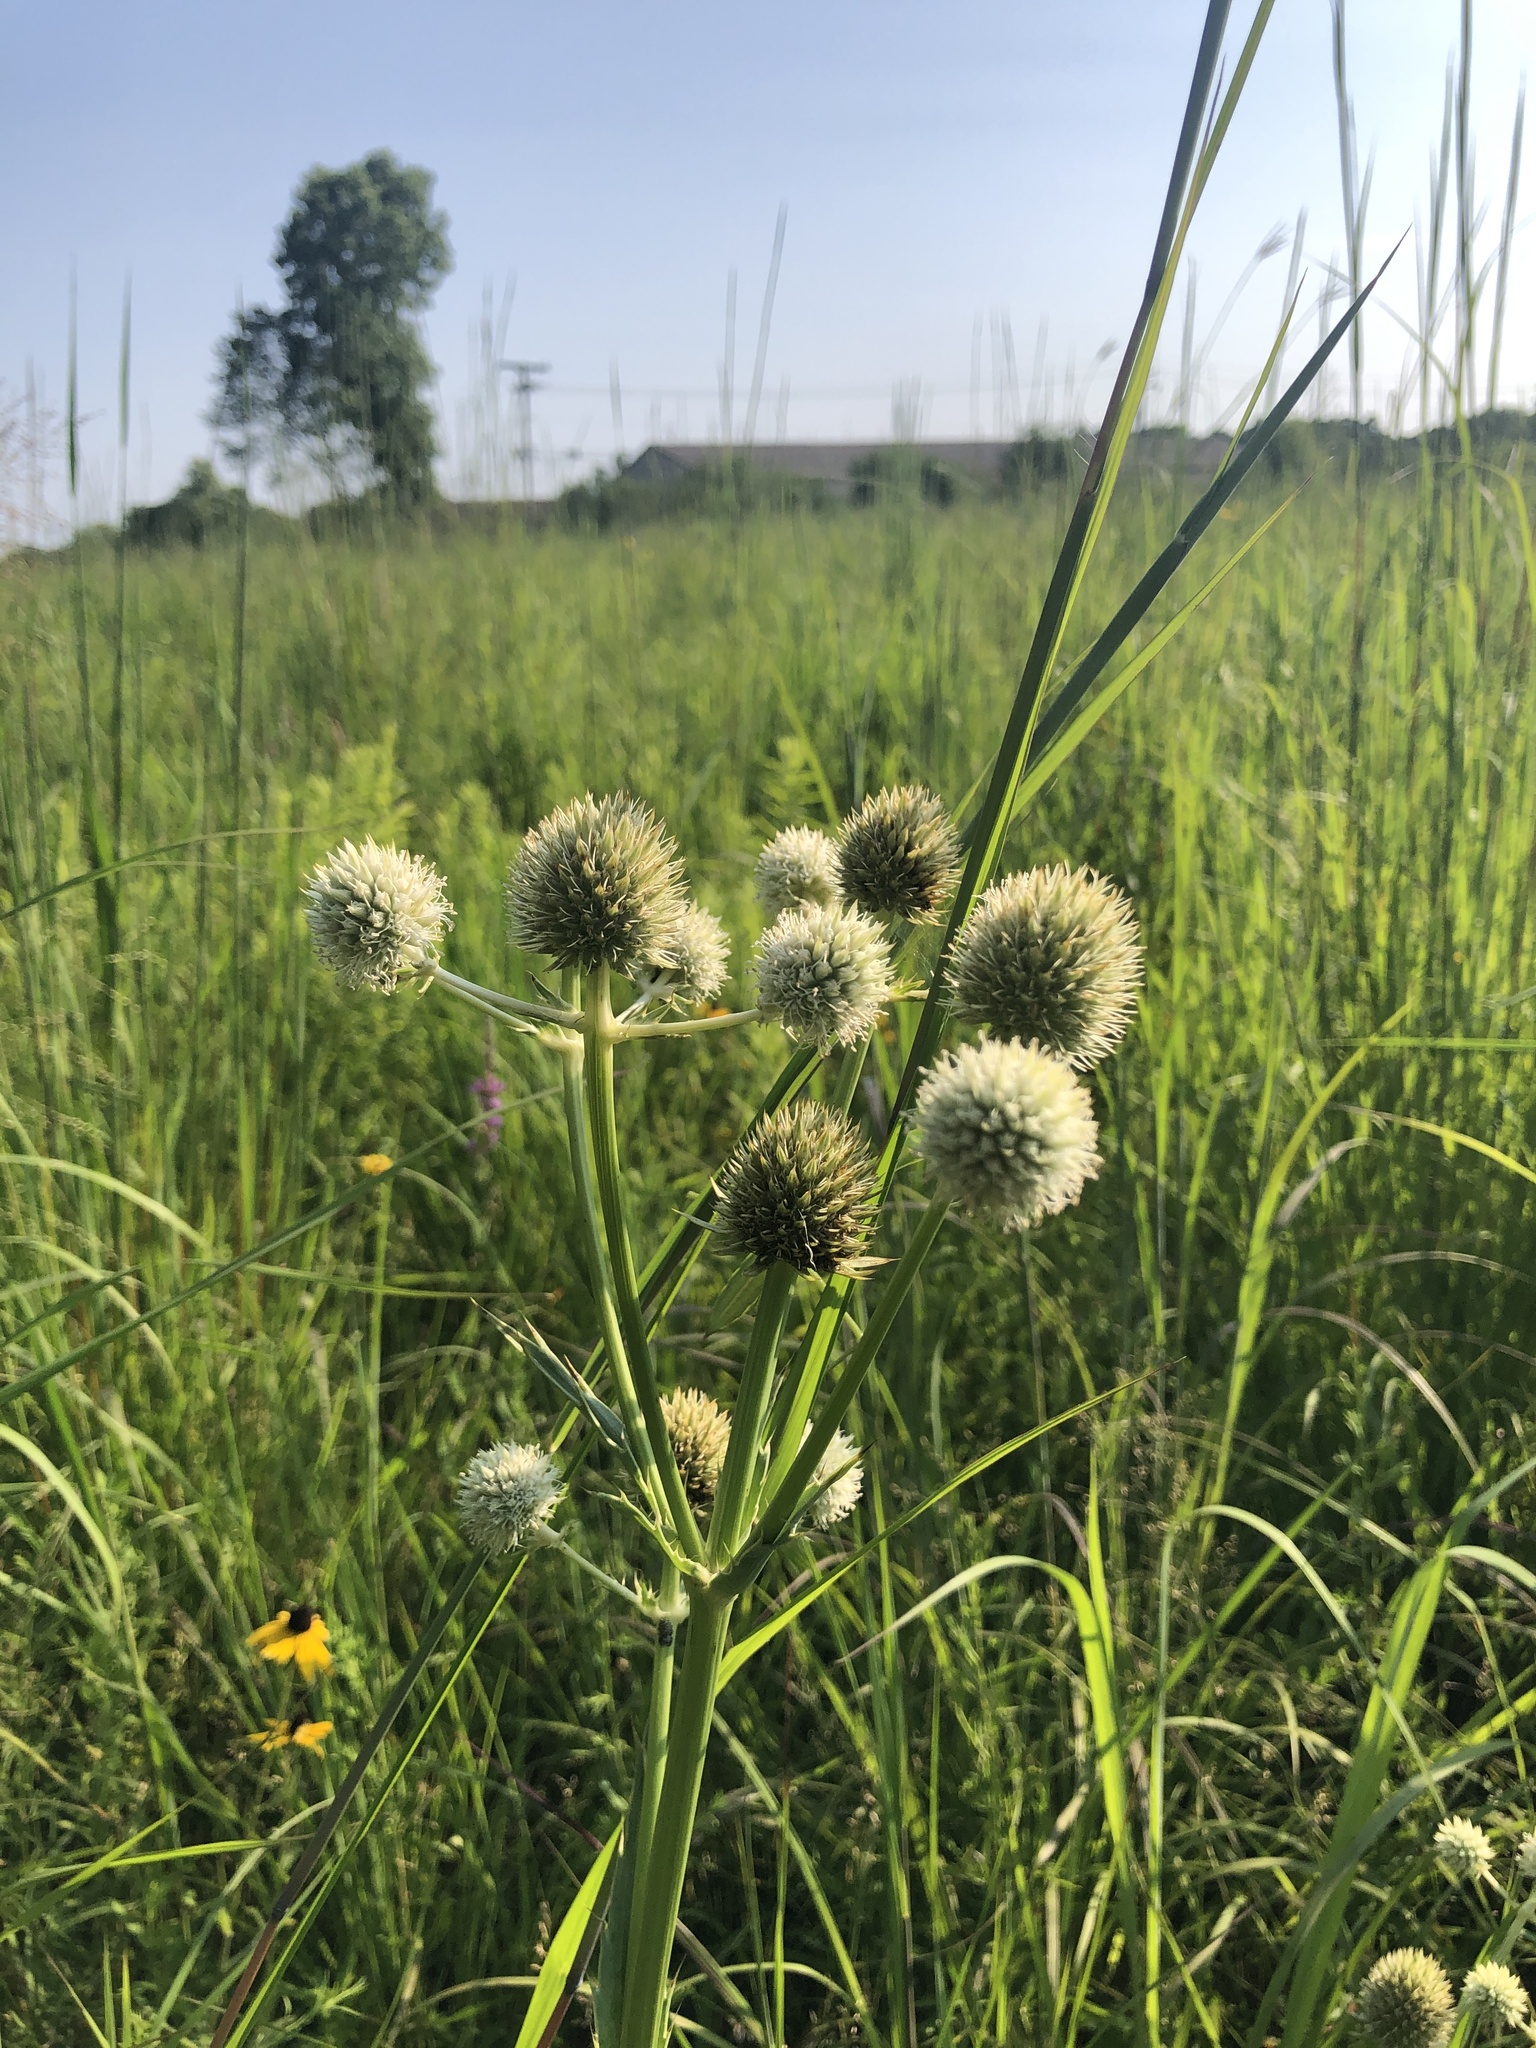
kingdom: Plantae
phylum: Tracheophyta
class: Magnoliopsida
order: Apiales
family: Apiaceae
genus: Eryngium
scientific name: Eryngium yuccifolium
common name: Button eryngo
